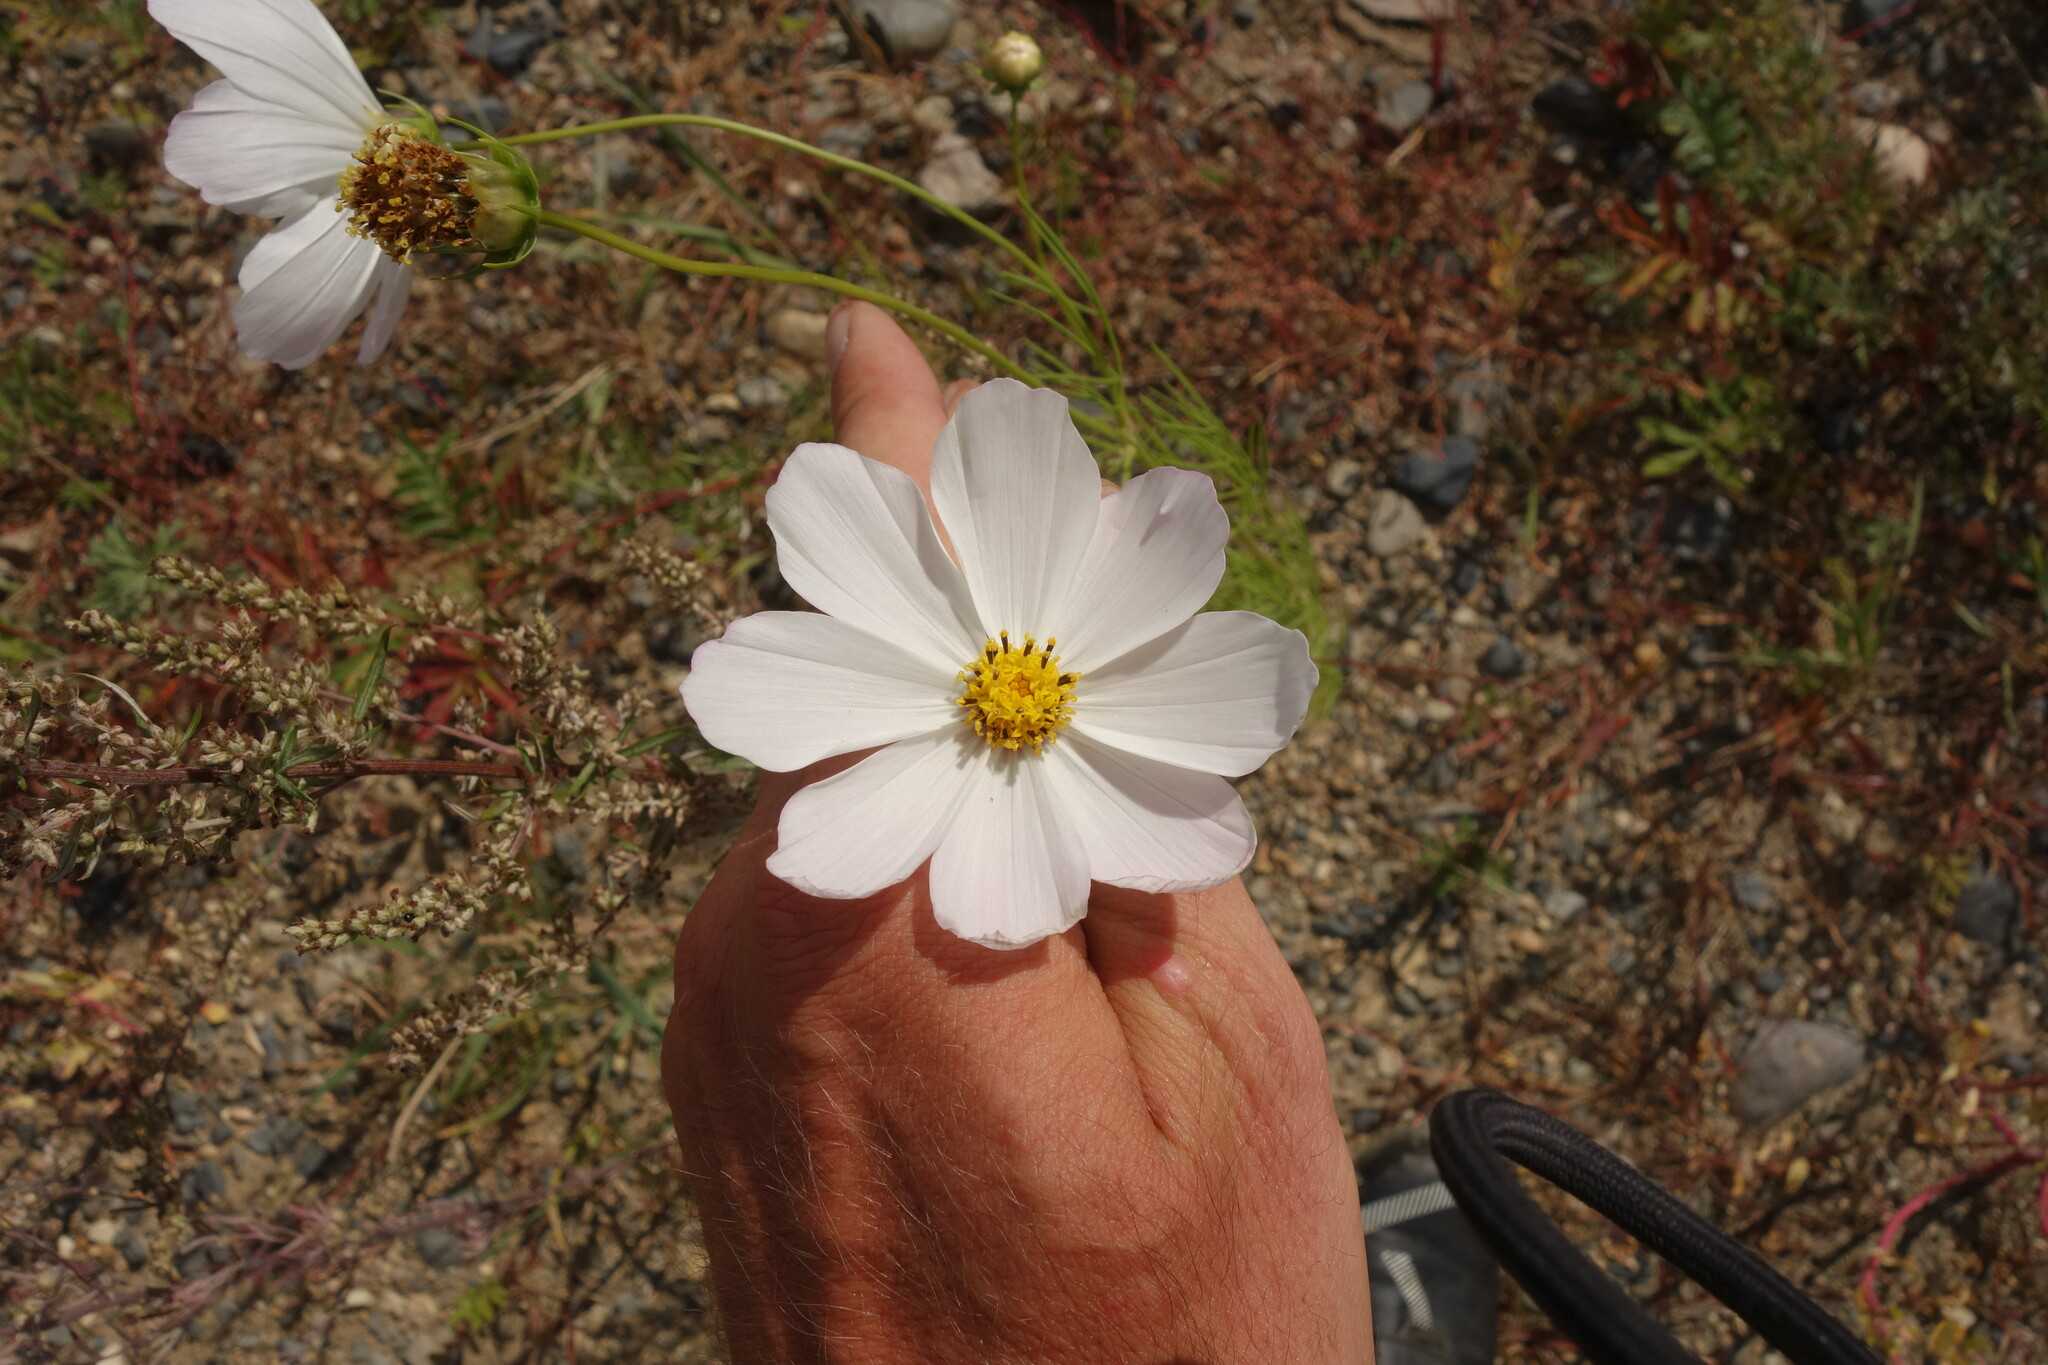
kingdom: Plantae
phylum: Tracheophyta
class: Magnoliopsida
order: Asterales
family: Asteraceae
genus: Cosmos
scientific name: Cosmos bipinnatus
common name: Garden cosmos
